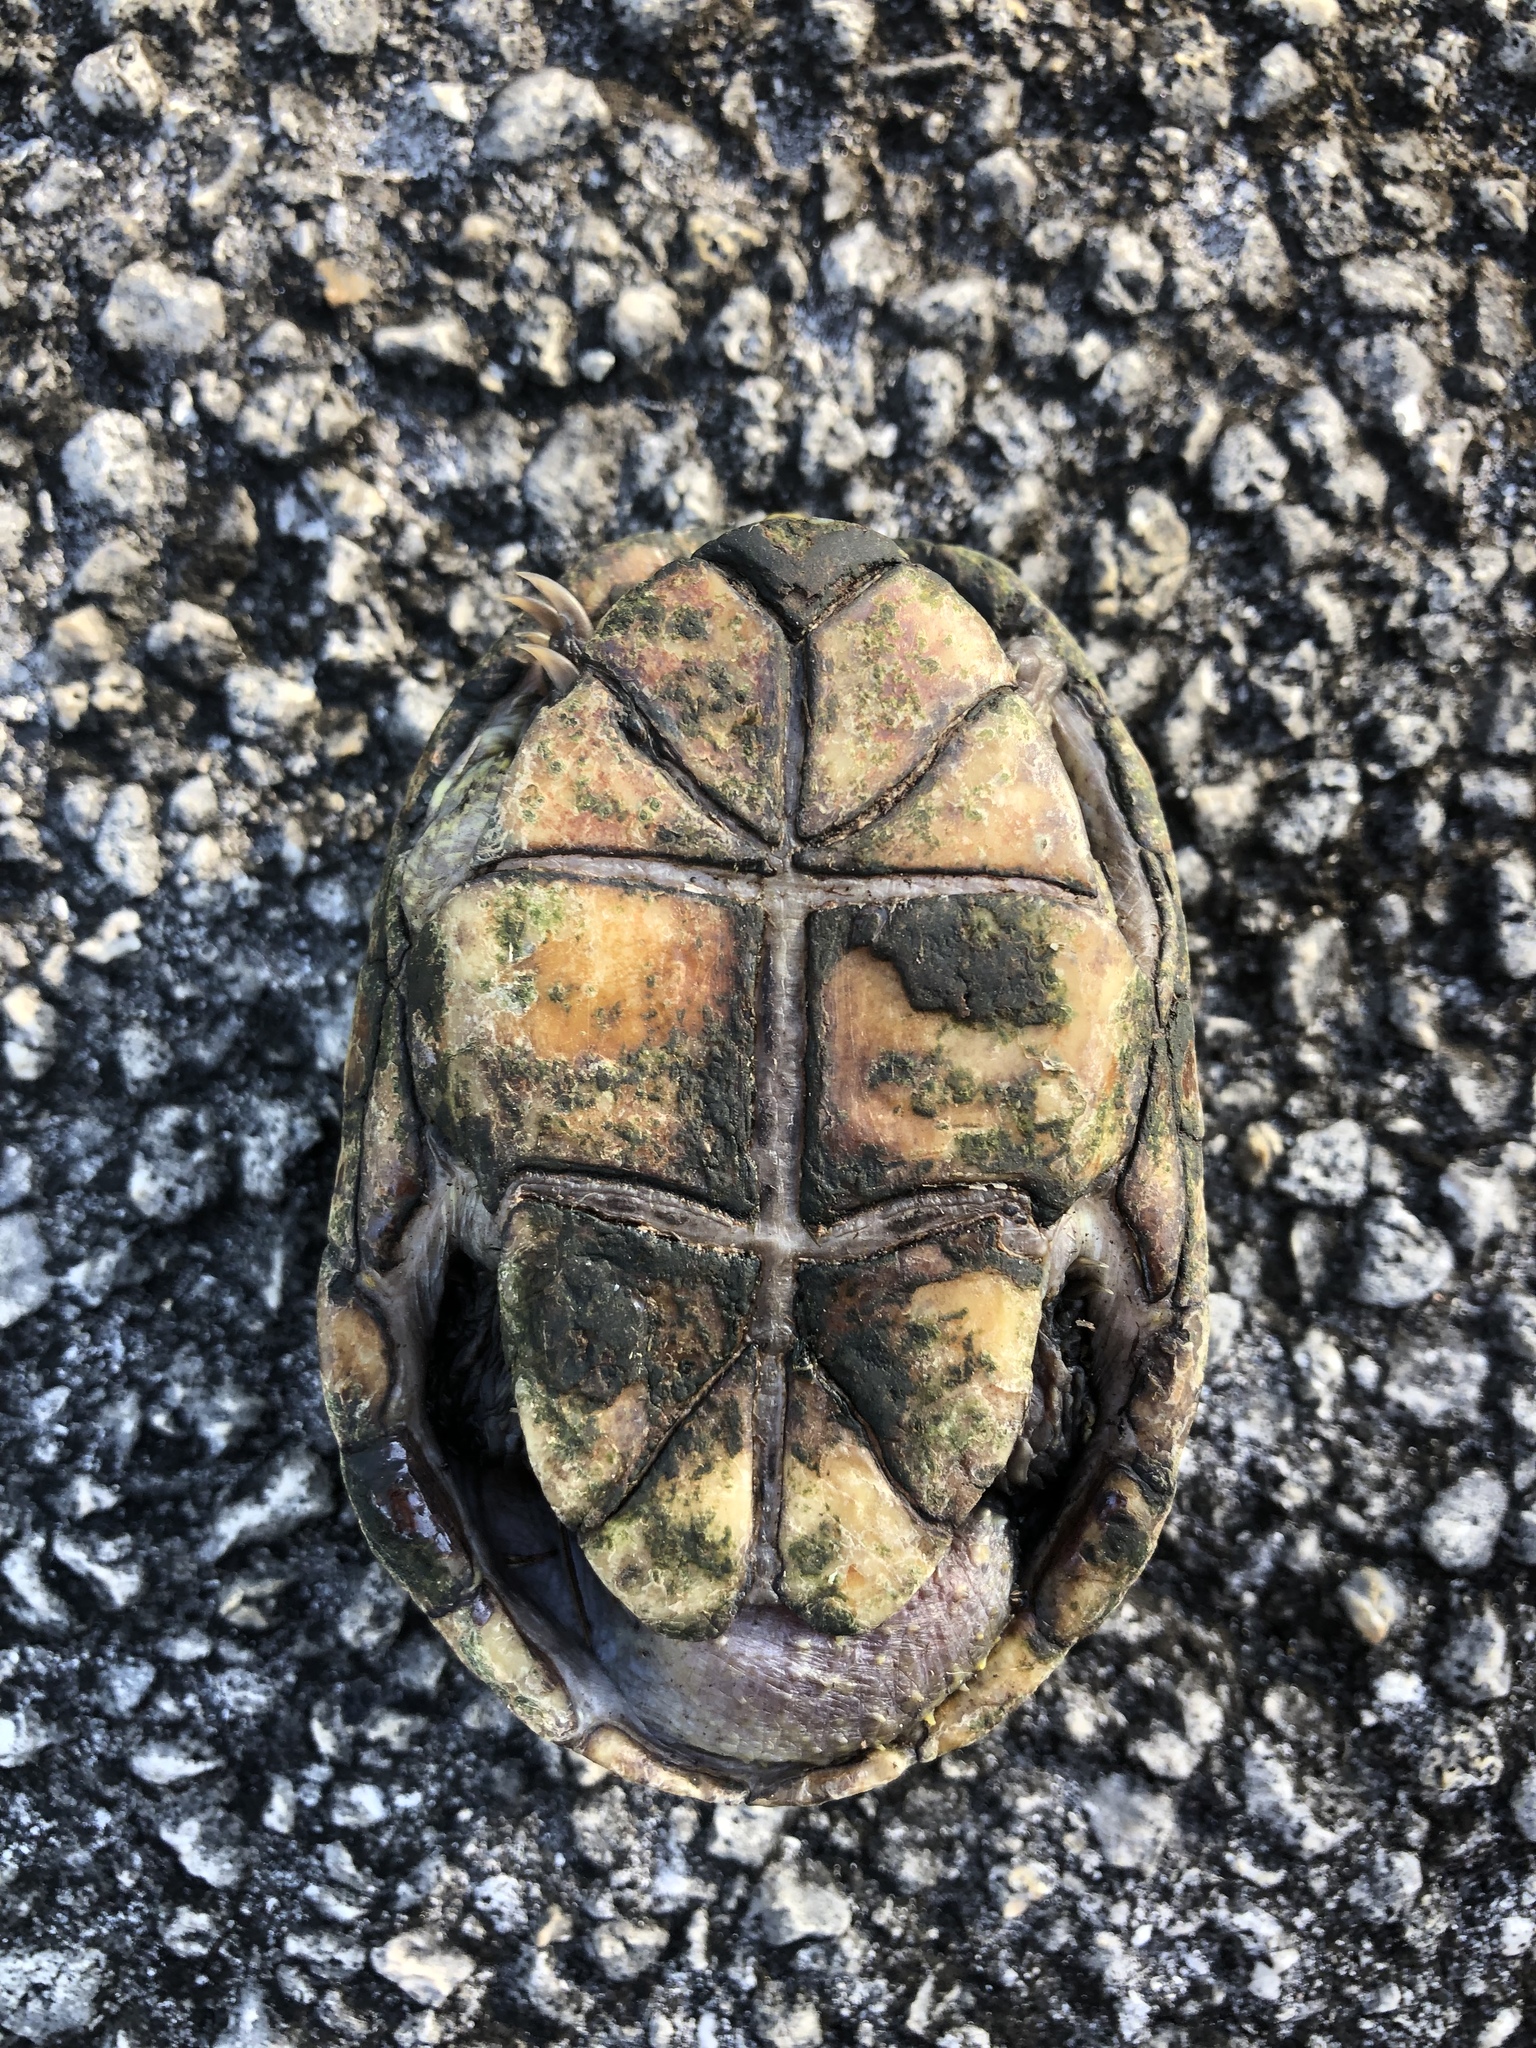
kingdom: Animalia
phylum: Chordata
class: Testudines
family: Kinosternidae
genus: Kinosternon
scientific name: Kinosternon baurii
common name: Striped mud turtle
